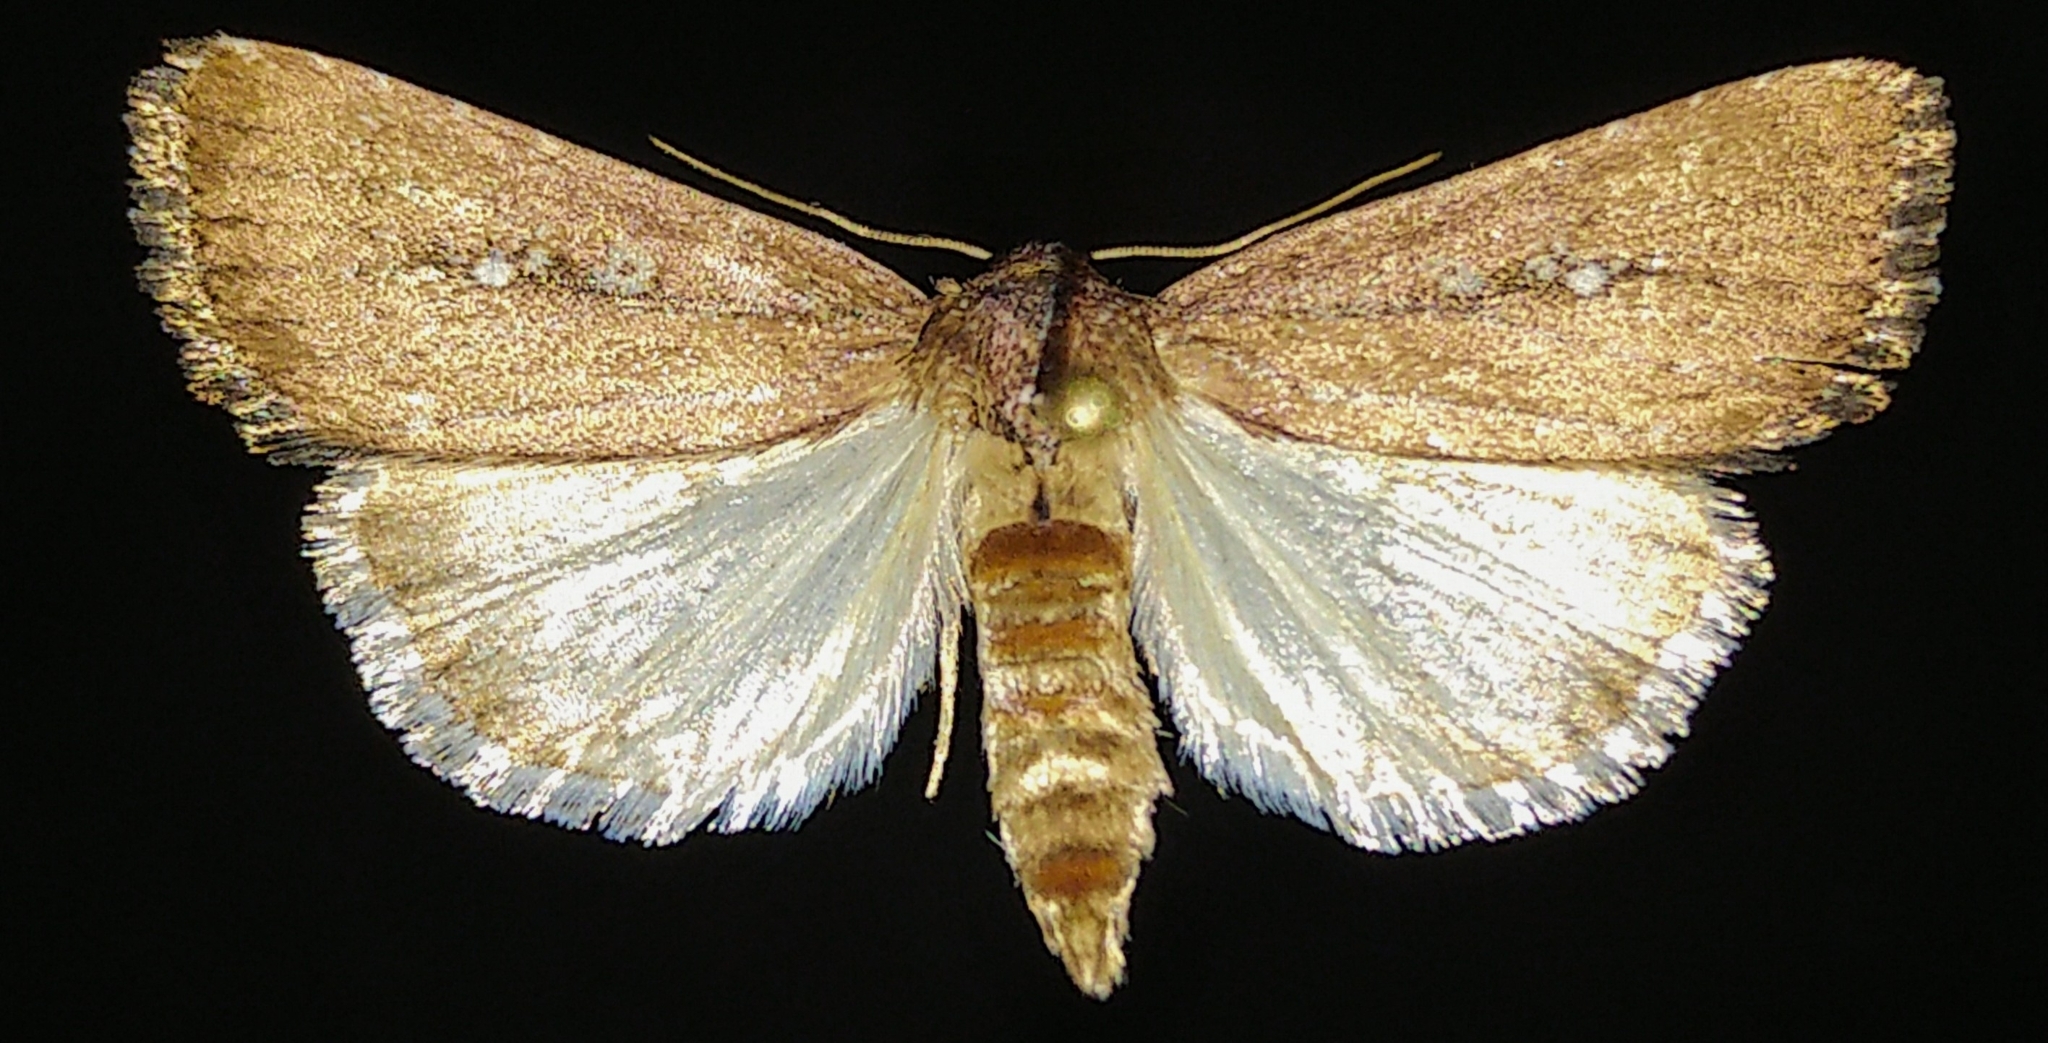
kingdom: Animalia
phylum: Arthropoda
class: Insecta
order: Lepidoptera
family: Noctuidae
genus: Condica
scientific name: Condica videns
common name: White-dotted groundling
